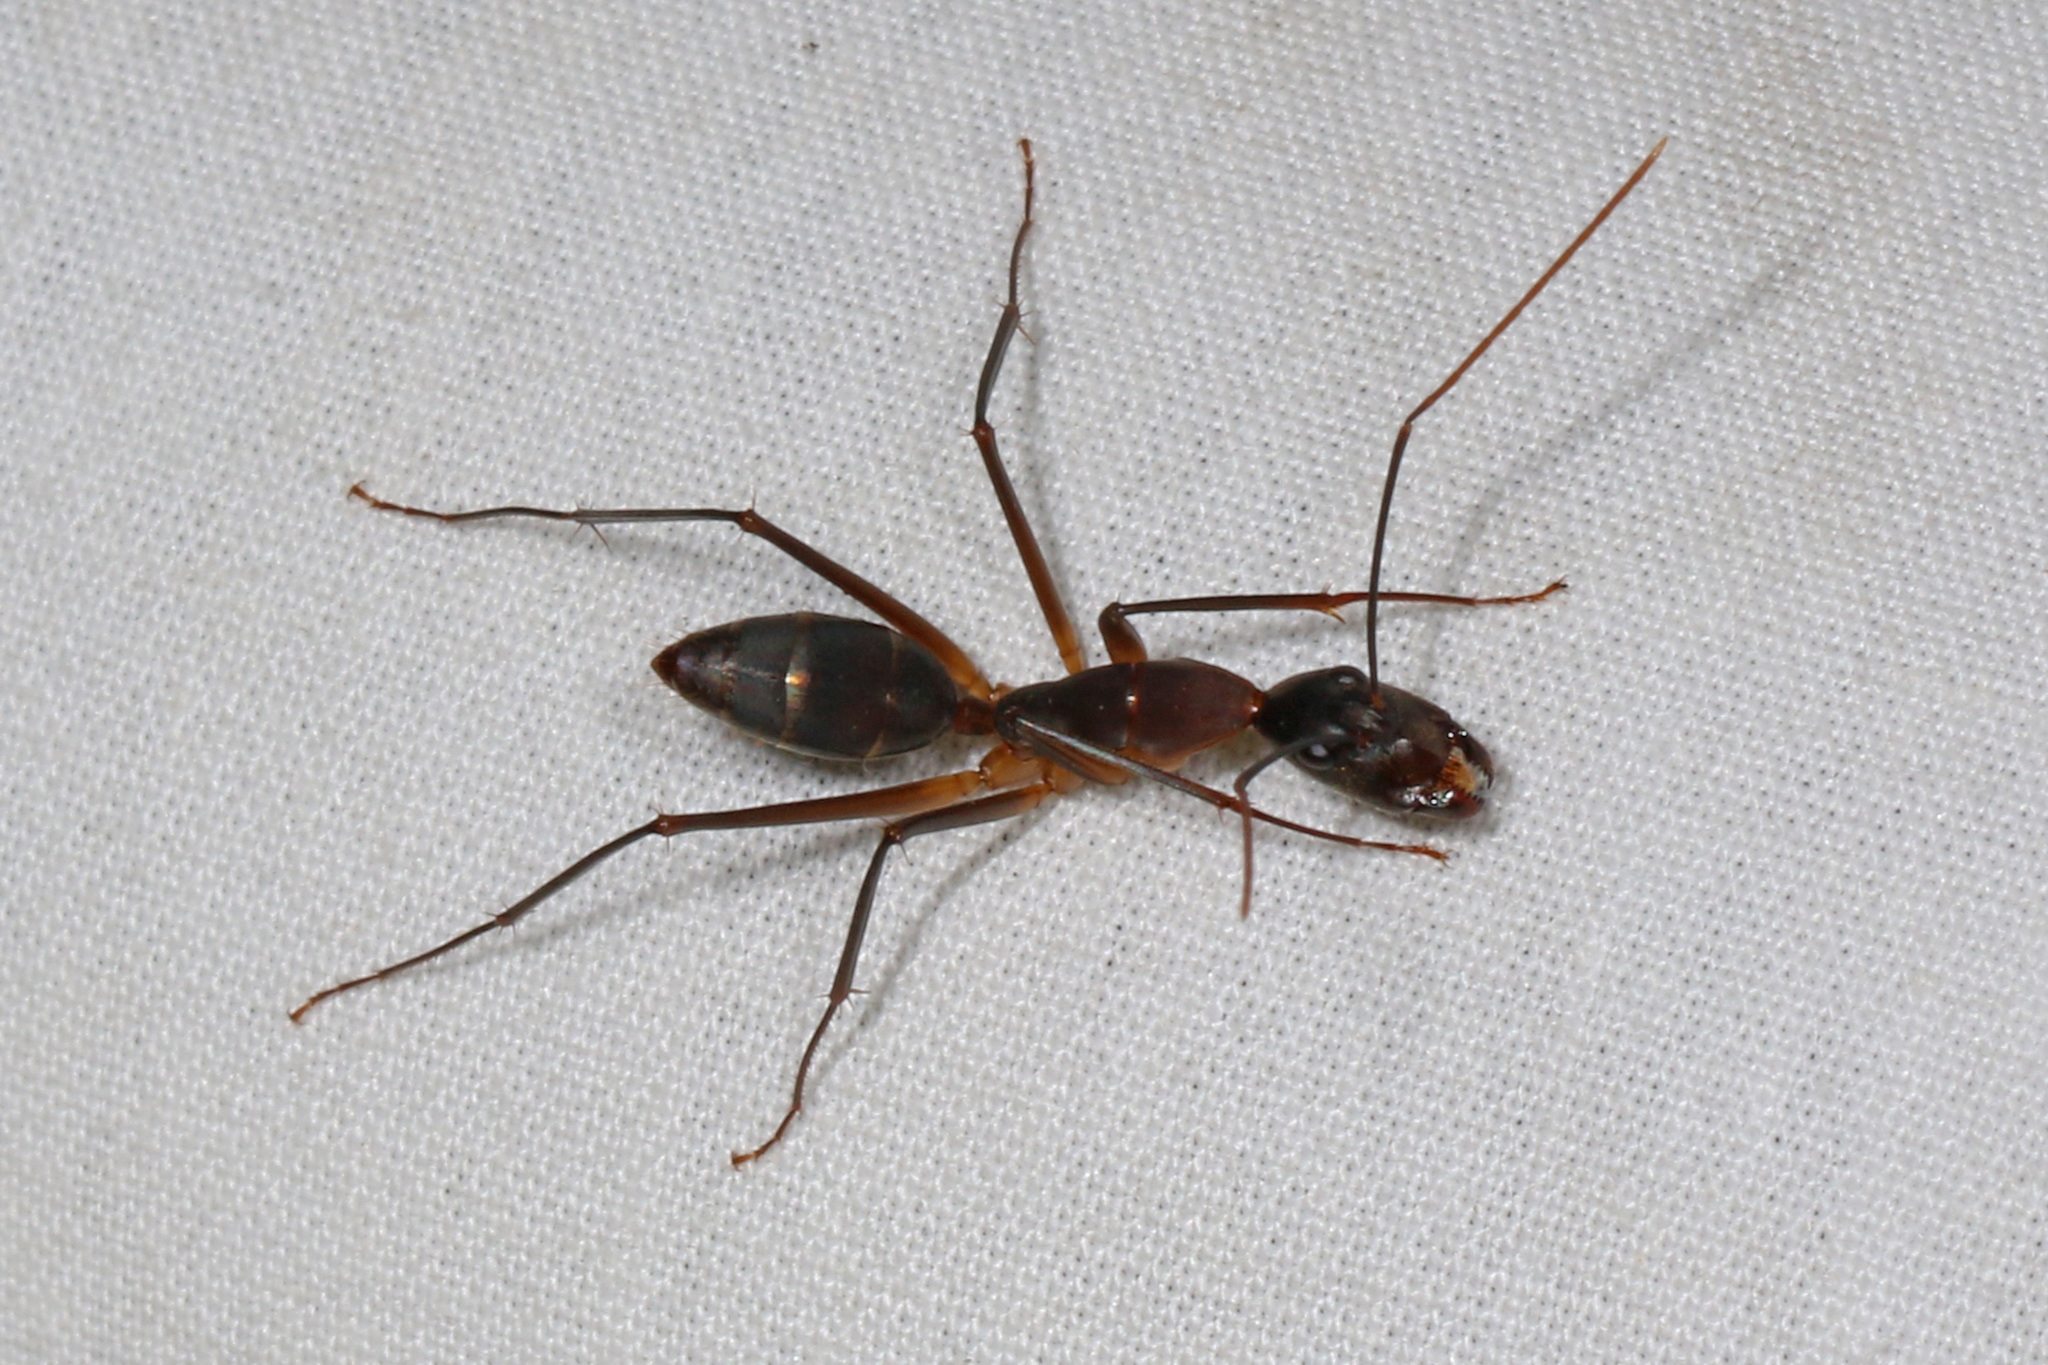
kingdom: Animalia
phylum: Arthropoda
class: Insecta
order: Hymenoptera
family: Formicidae
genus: Camponotus
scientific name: Camponotus etiolipes
